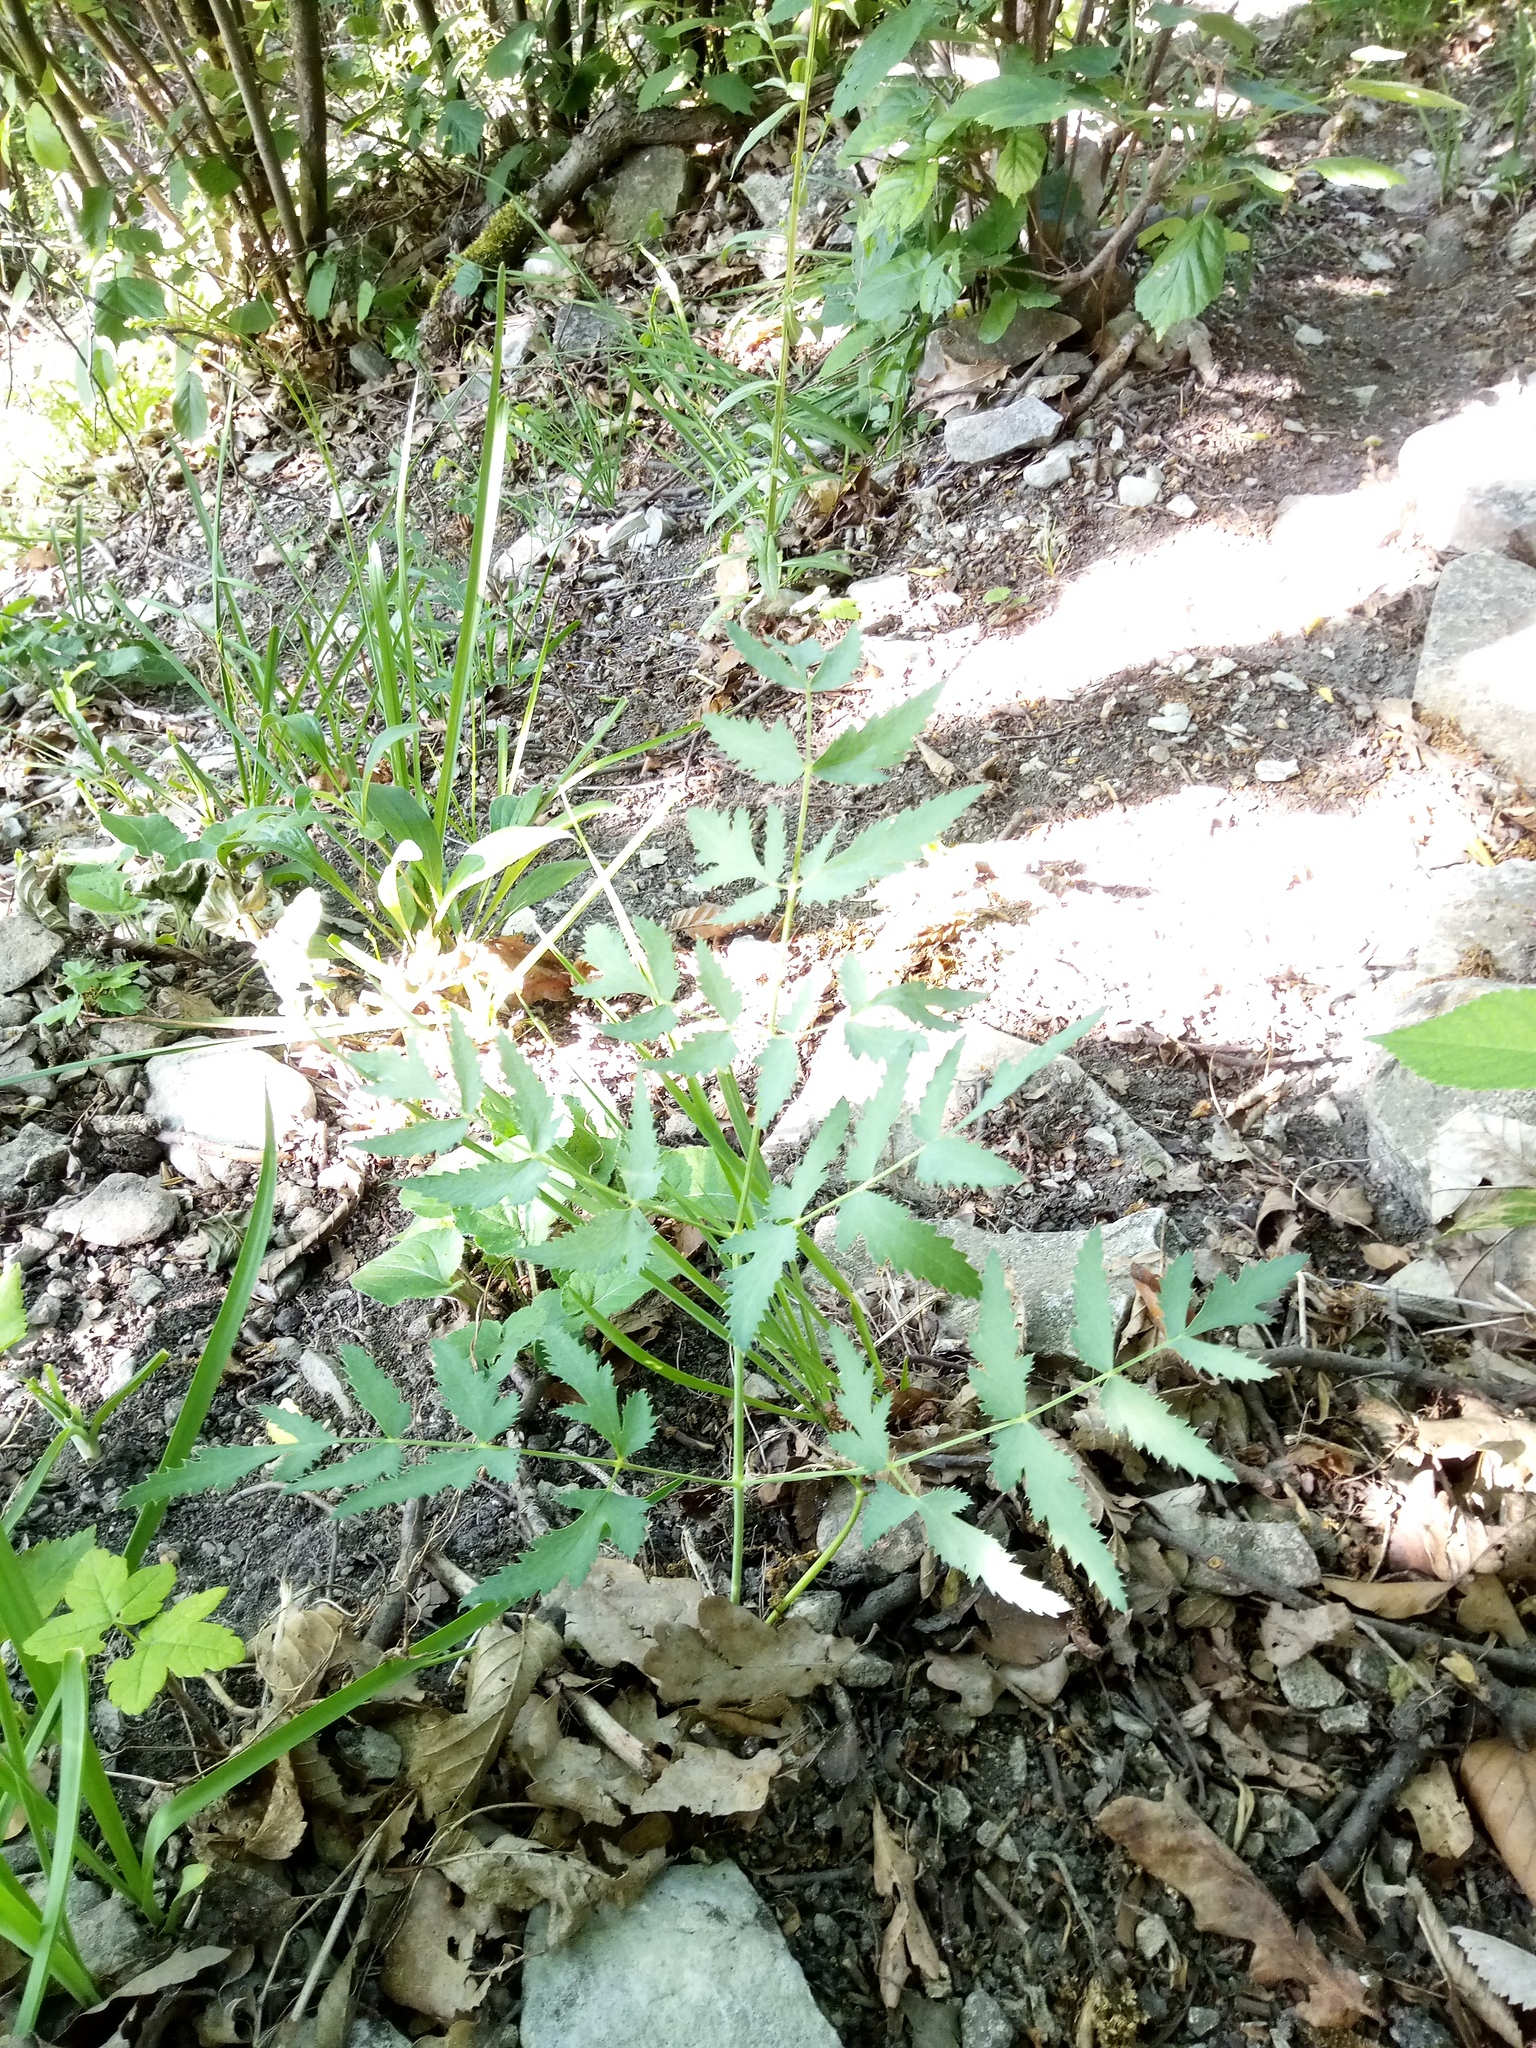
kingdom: Plantae
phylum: Tracheophyta
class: Magnoliopsida
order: Apiales
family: Apiaceae
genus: Cervaria
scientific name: Cervaria rivini
